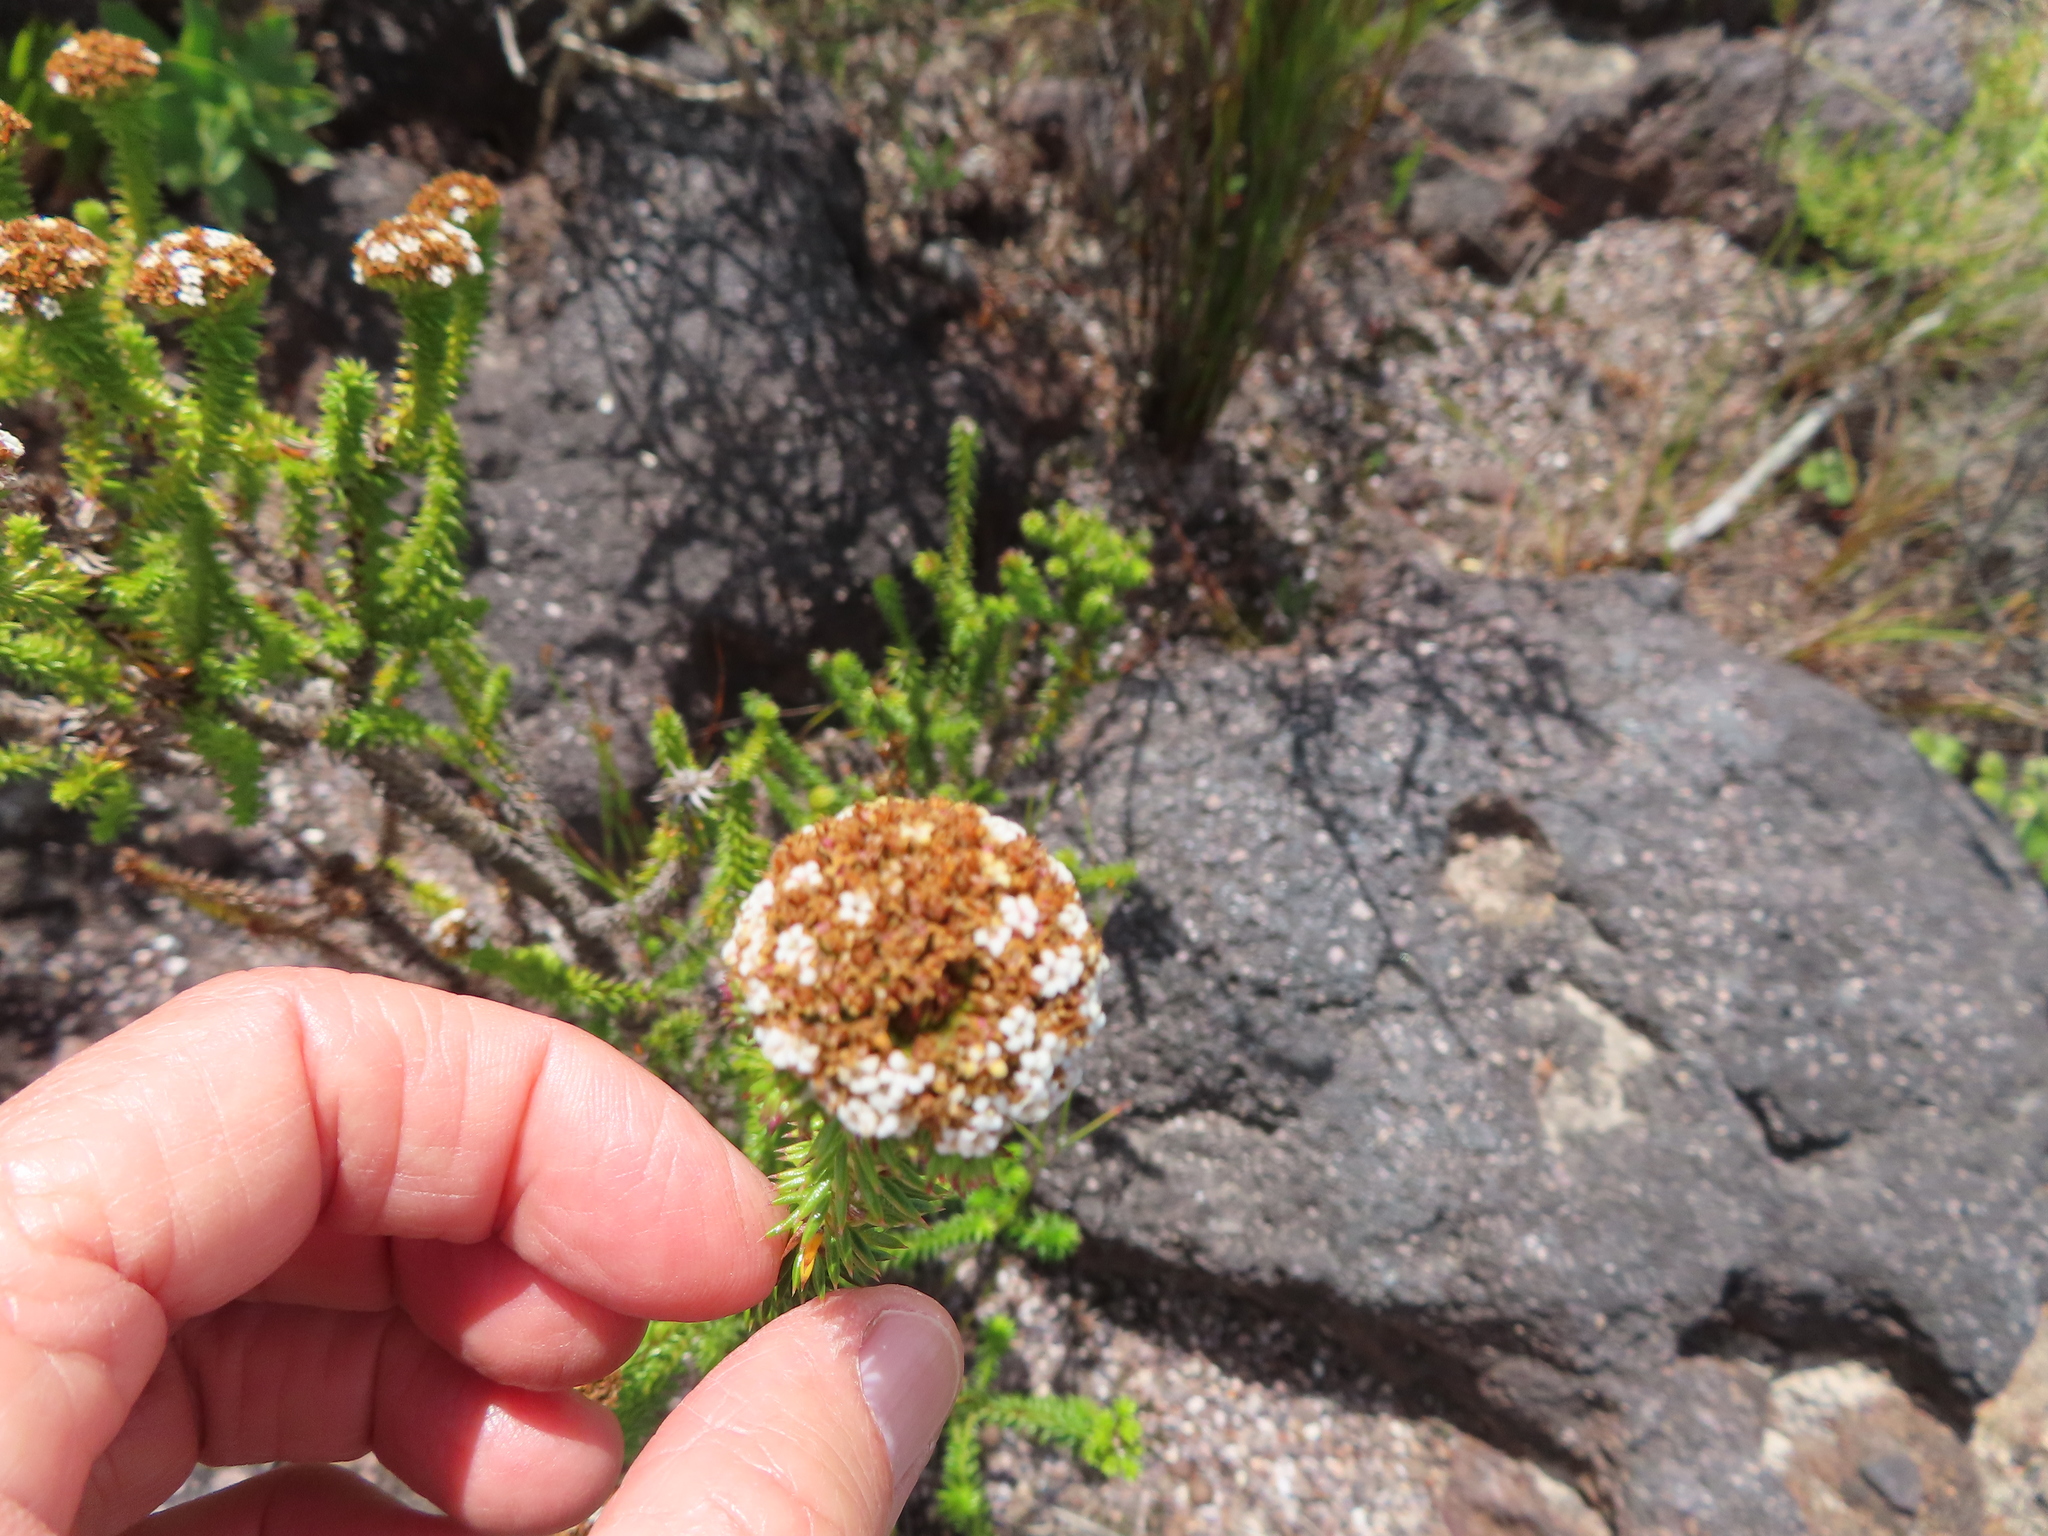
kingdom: Plantae
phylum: Tracheophyta
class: Magnoliopsida
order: Asterales
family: Asteraceae
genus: Stoebe
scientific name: Stoebe aethiopica
